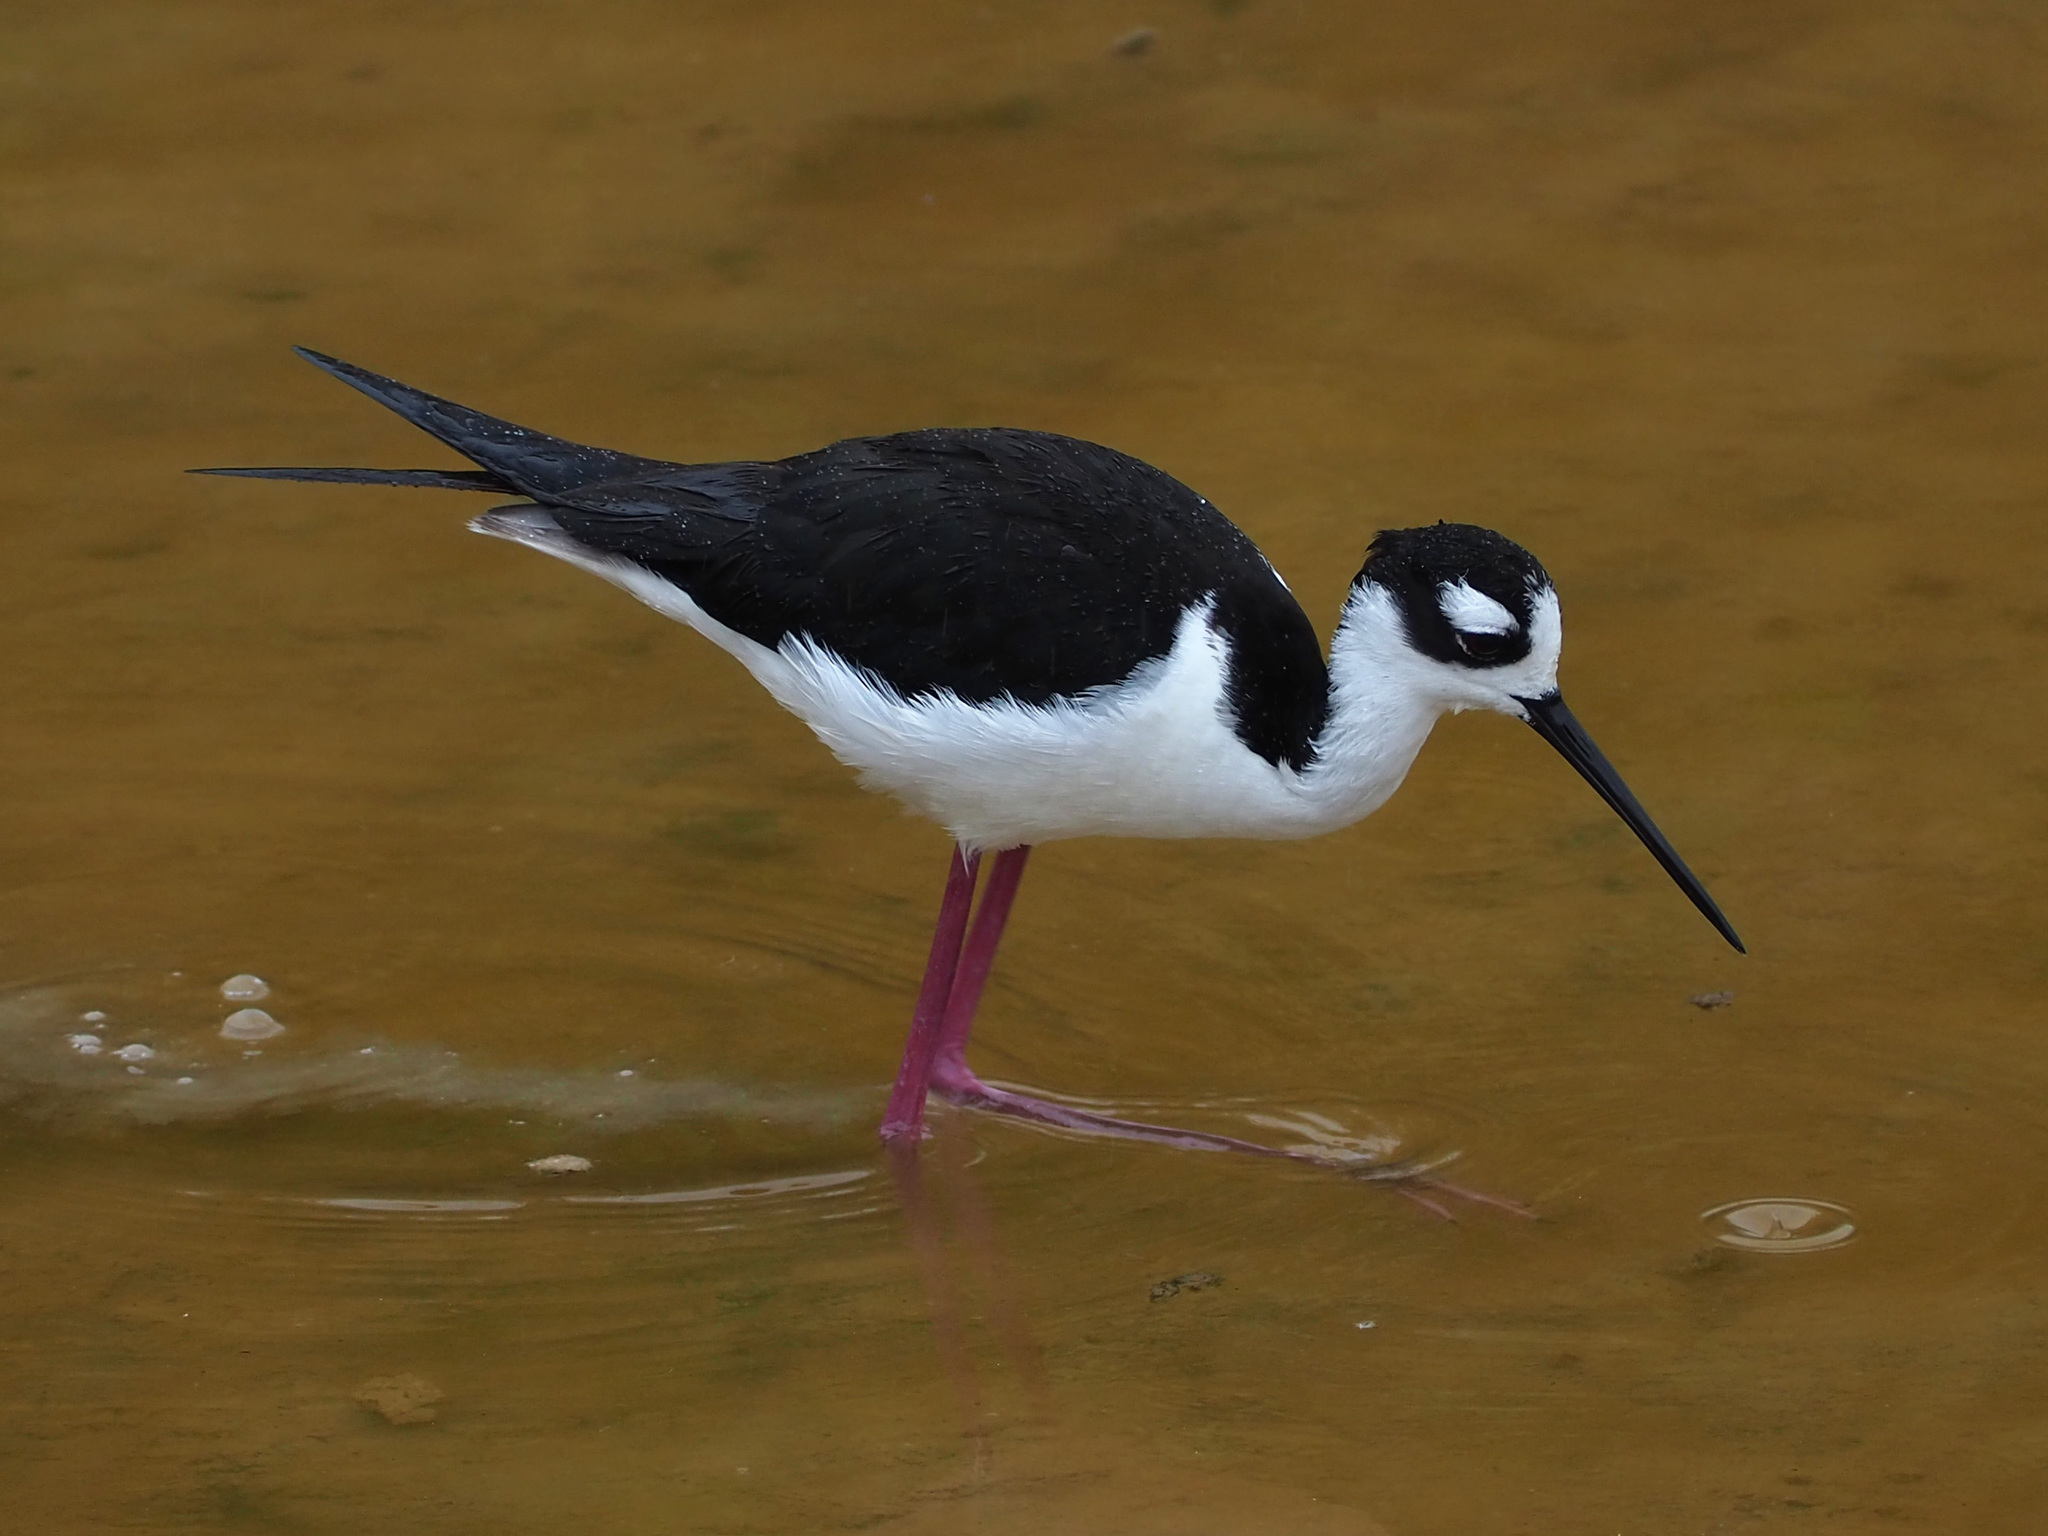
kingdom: Animalia
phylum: Chordata
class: Aves
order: Charadriiformes
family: Recurvirostridae
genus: Himantopus
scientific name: Himantopus mexicanus
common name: Black-necked stilt
